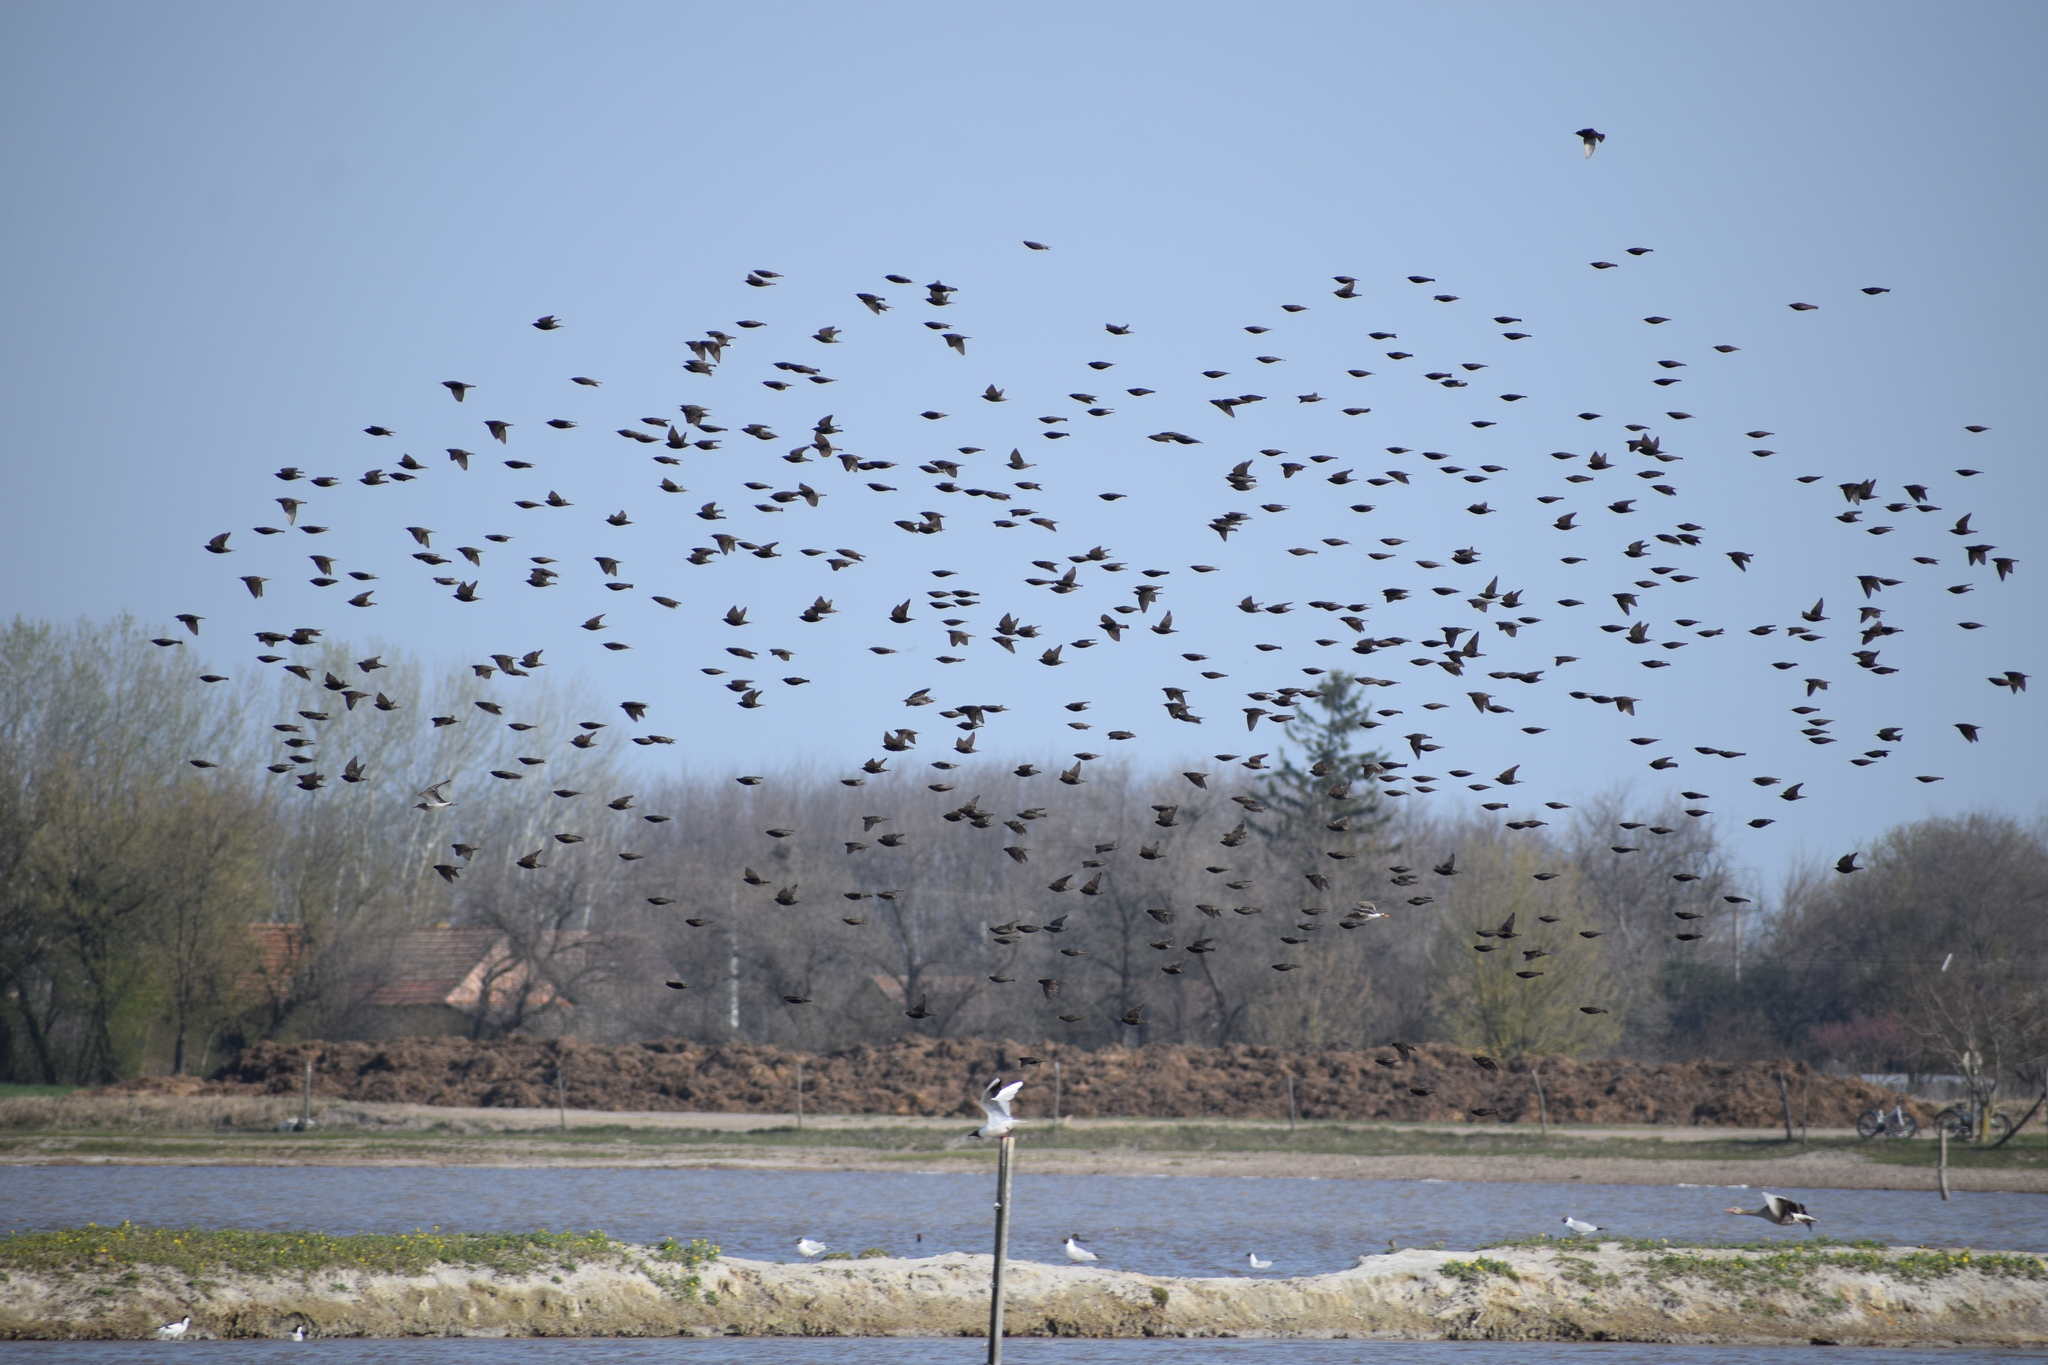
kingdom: Animalia
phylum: Chordata
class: Aves
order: Passeriformes
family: Sturnidae
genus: Sturnus
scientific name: Sturnus vulgaris
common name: Common starling
